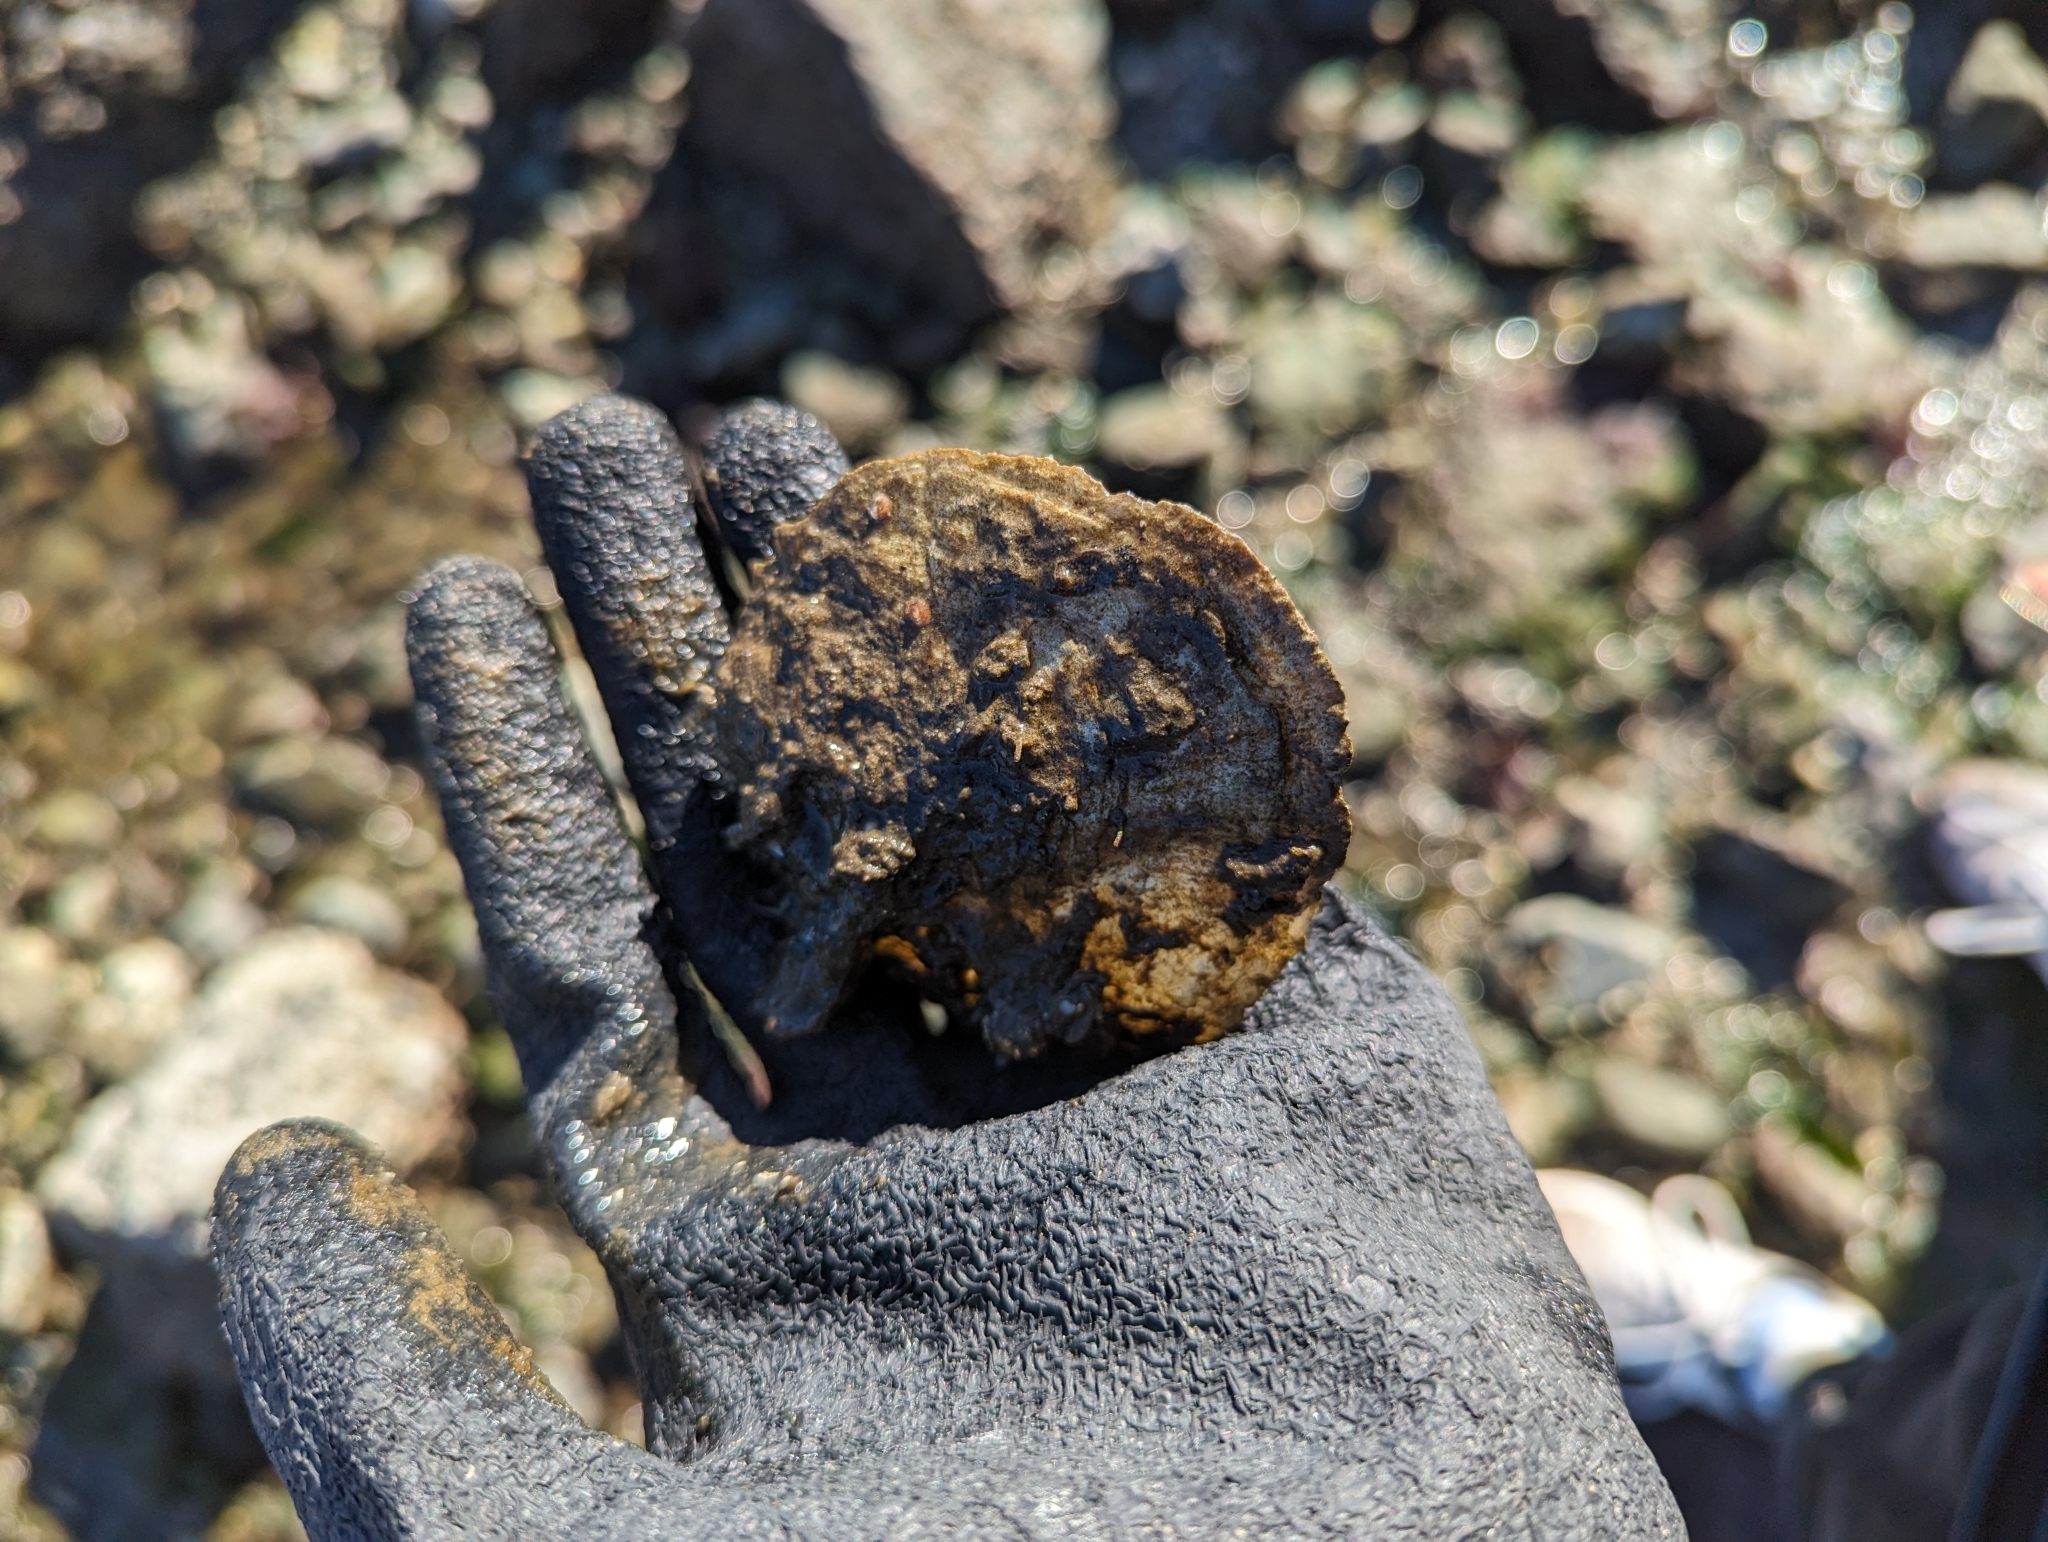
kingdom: Animalia
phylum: Mollusca
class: Bivalvia
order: Pectinida
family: Anomiidae
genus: Pododesmus
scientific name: Pododesmus macrochisma
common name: Alaska jingle
